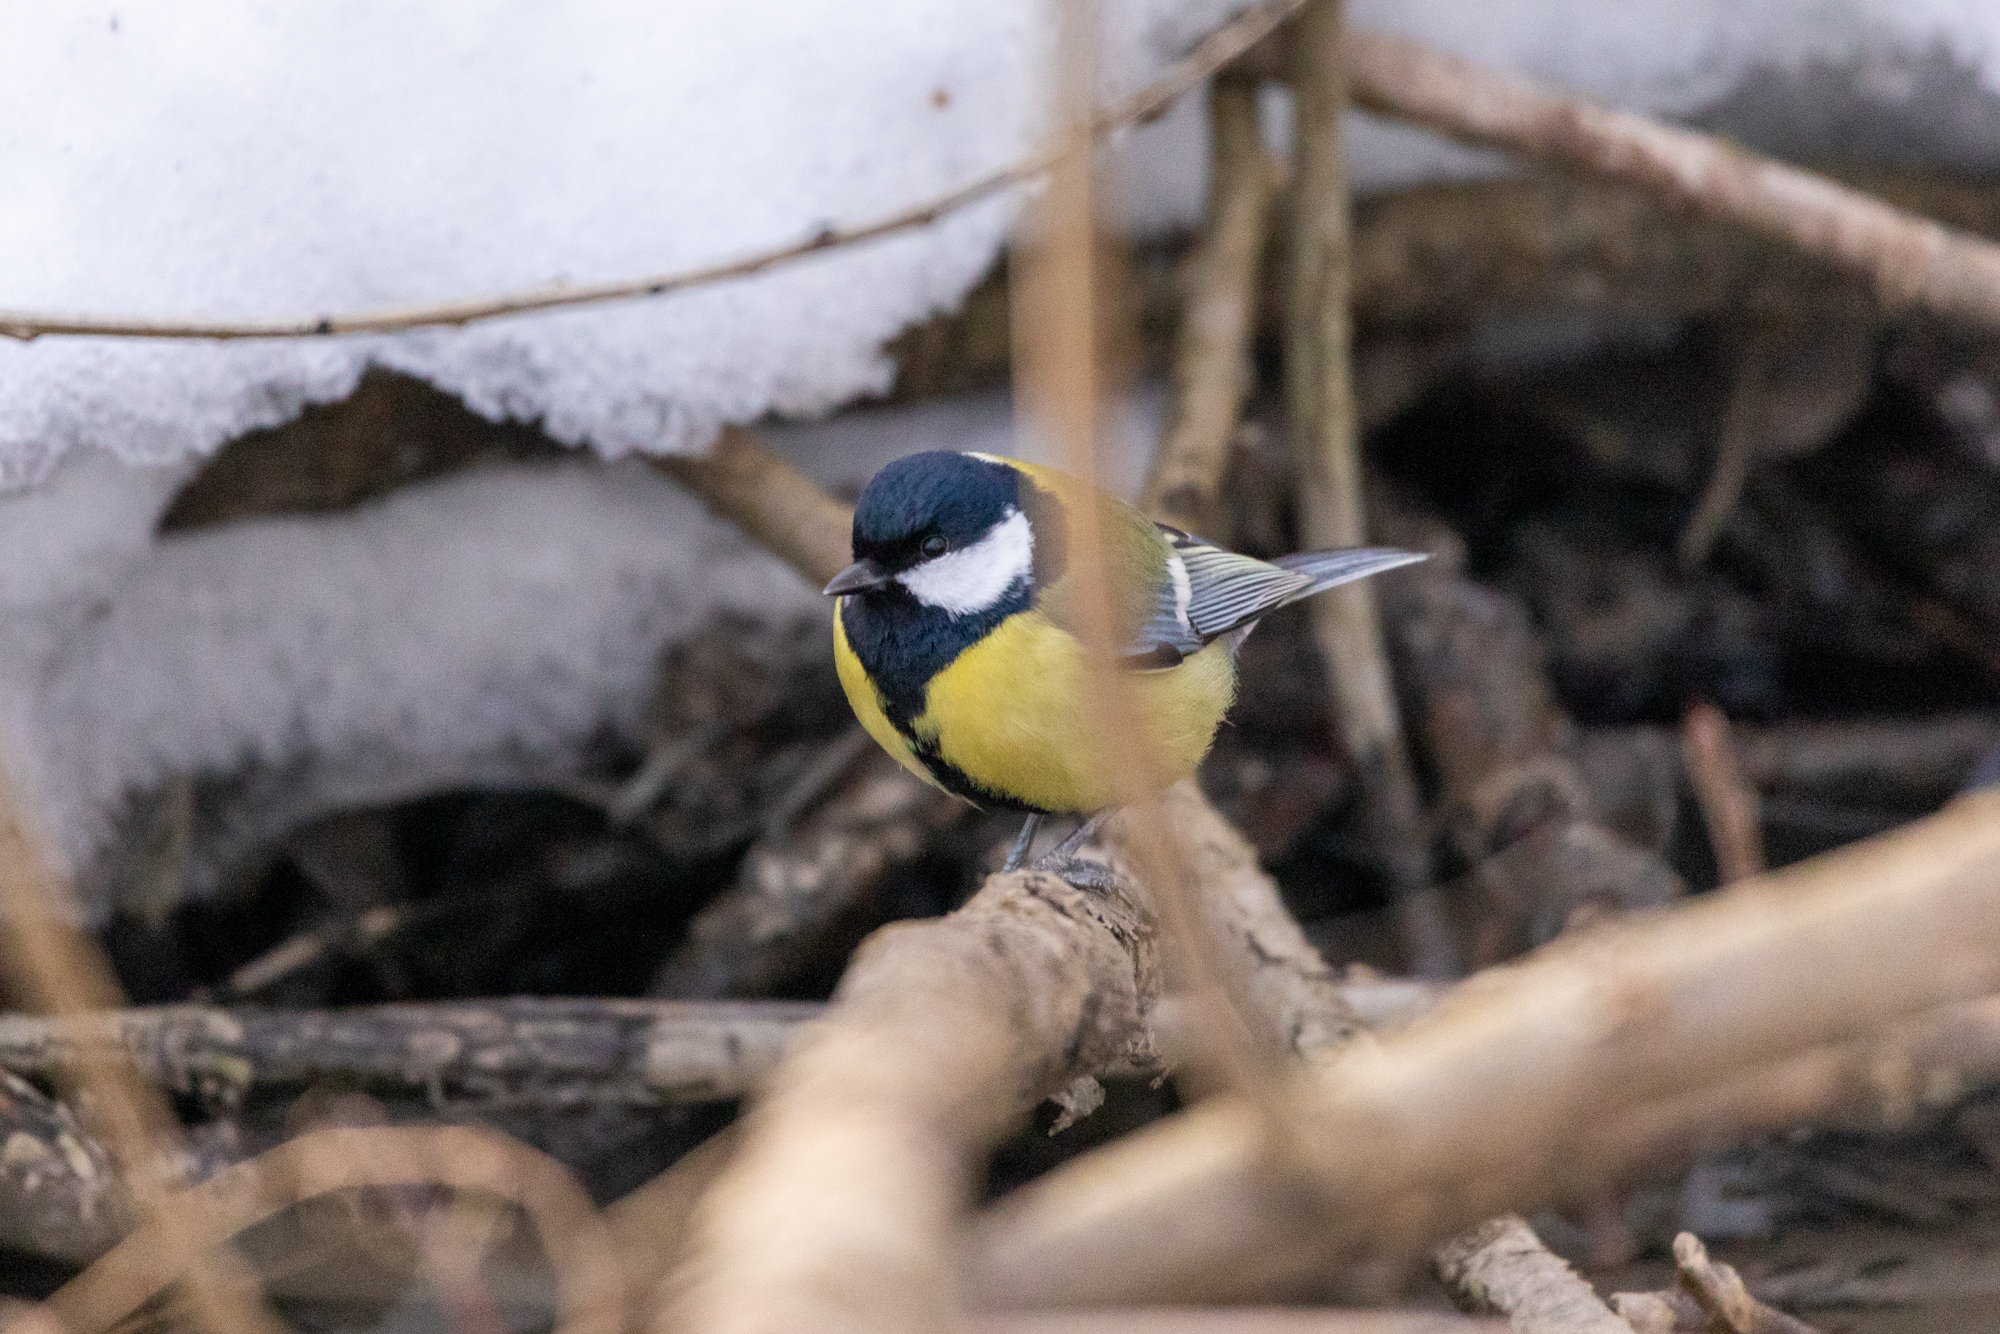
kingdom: Animalia
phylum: Chordata
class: Aves
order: Passeriformes
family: Paridae
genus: Parus
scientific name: Parus major
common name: Great tit
